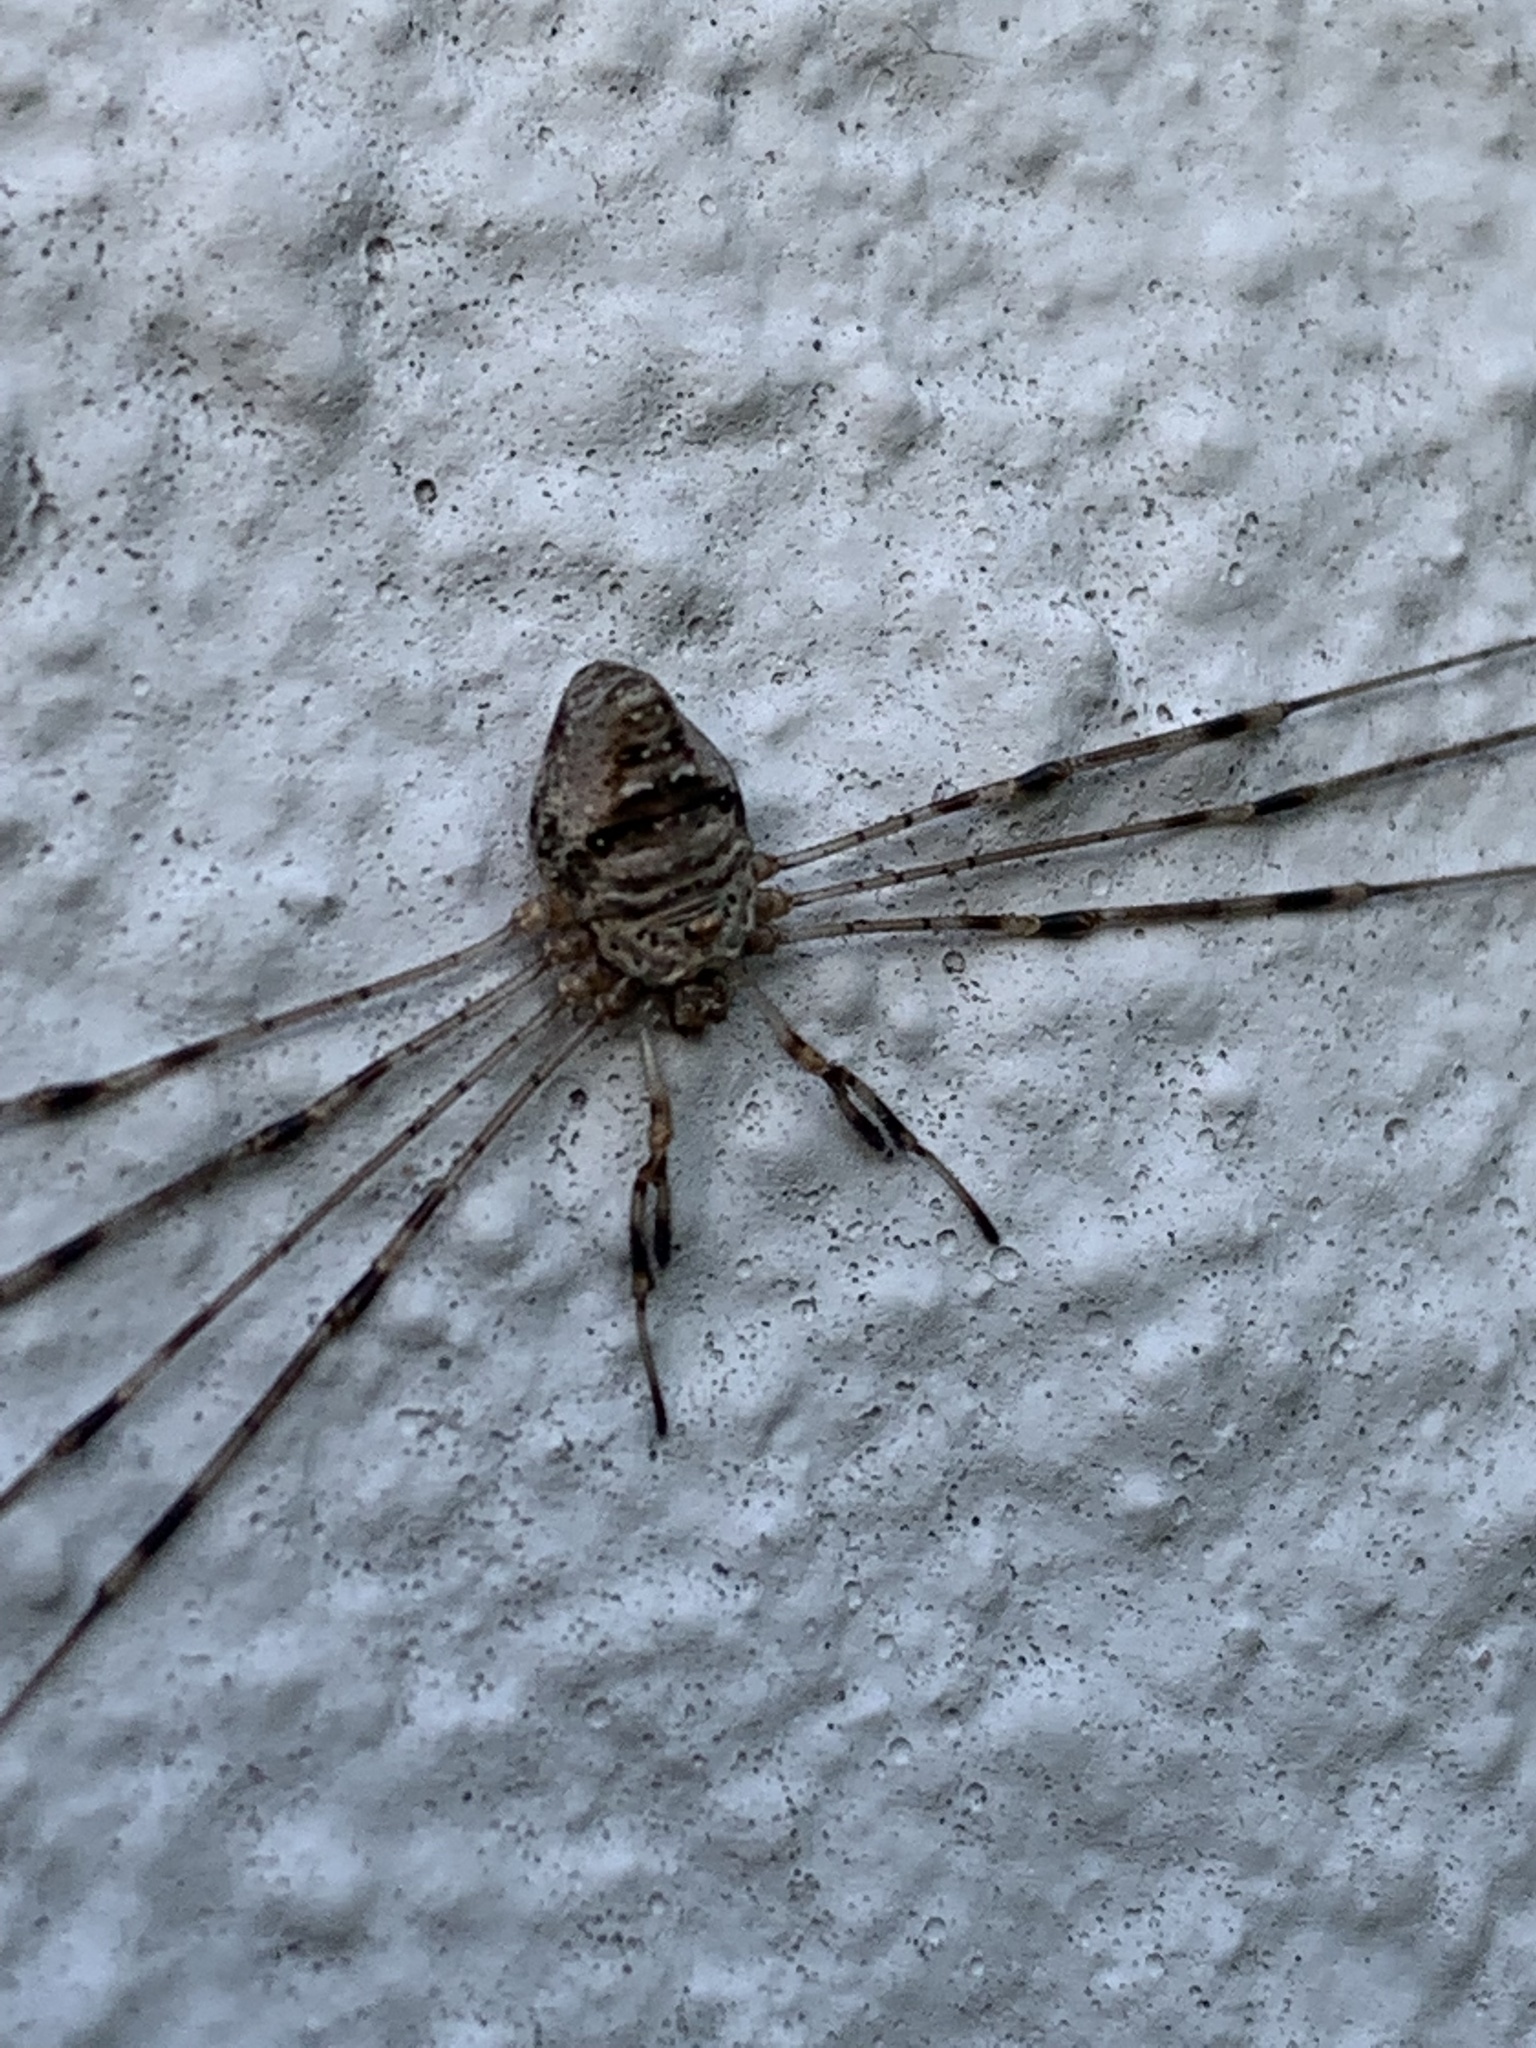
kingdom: Animalia
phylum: Arthropoda
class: Arachnida
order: Opiliones
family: Phalangiidae
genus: Dicranopalpus
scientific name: Dicranopalpus ramosus
